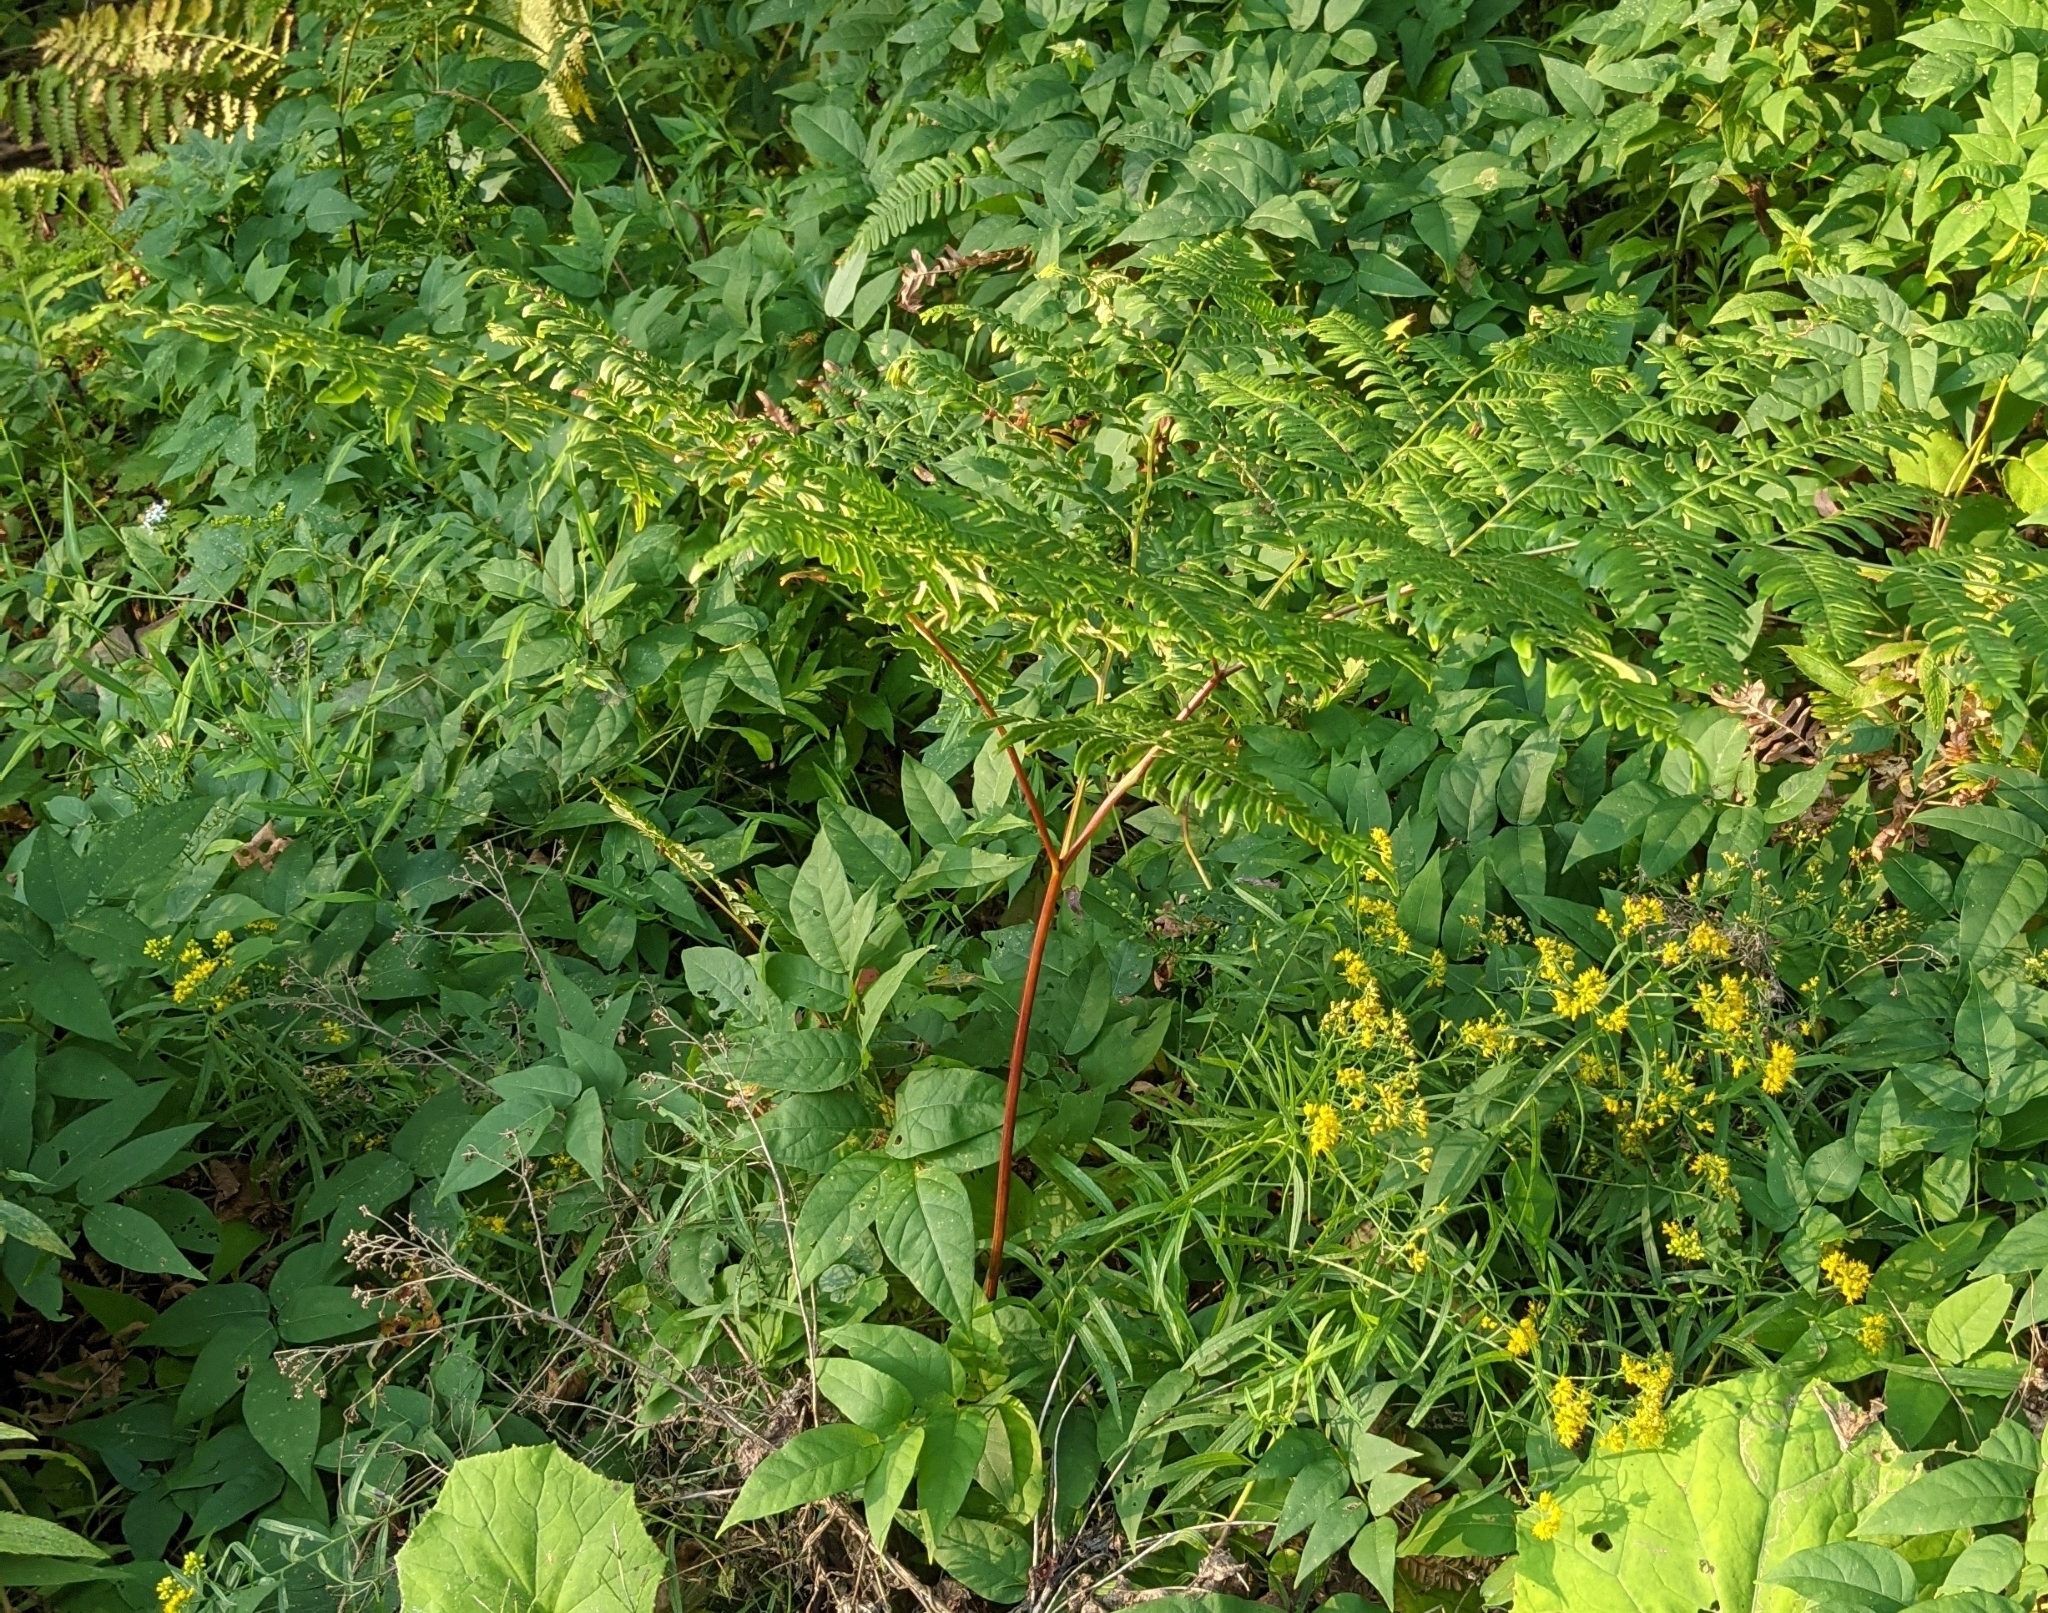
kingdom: Plantae
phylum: Tracheophyta
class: Polypodiopsida
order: Polypodiales
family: Dennstaedtiaceae
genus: Pteridium
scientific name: Pteridium aquilinum
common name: Bracken
